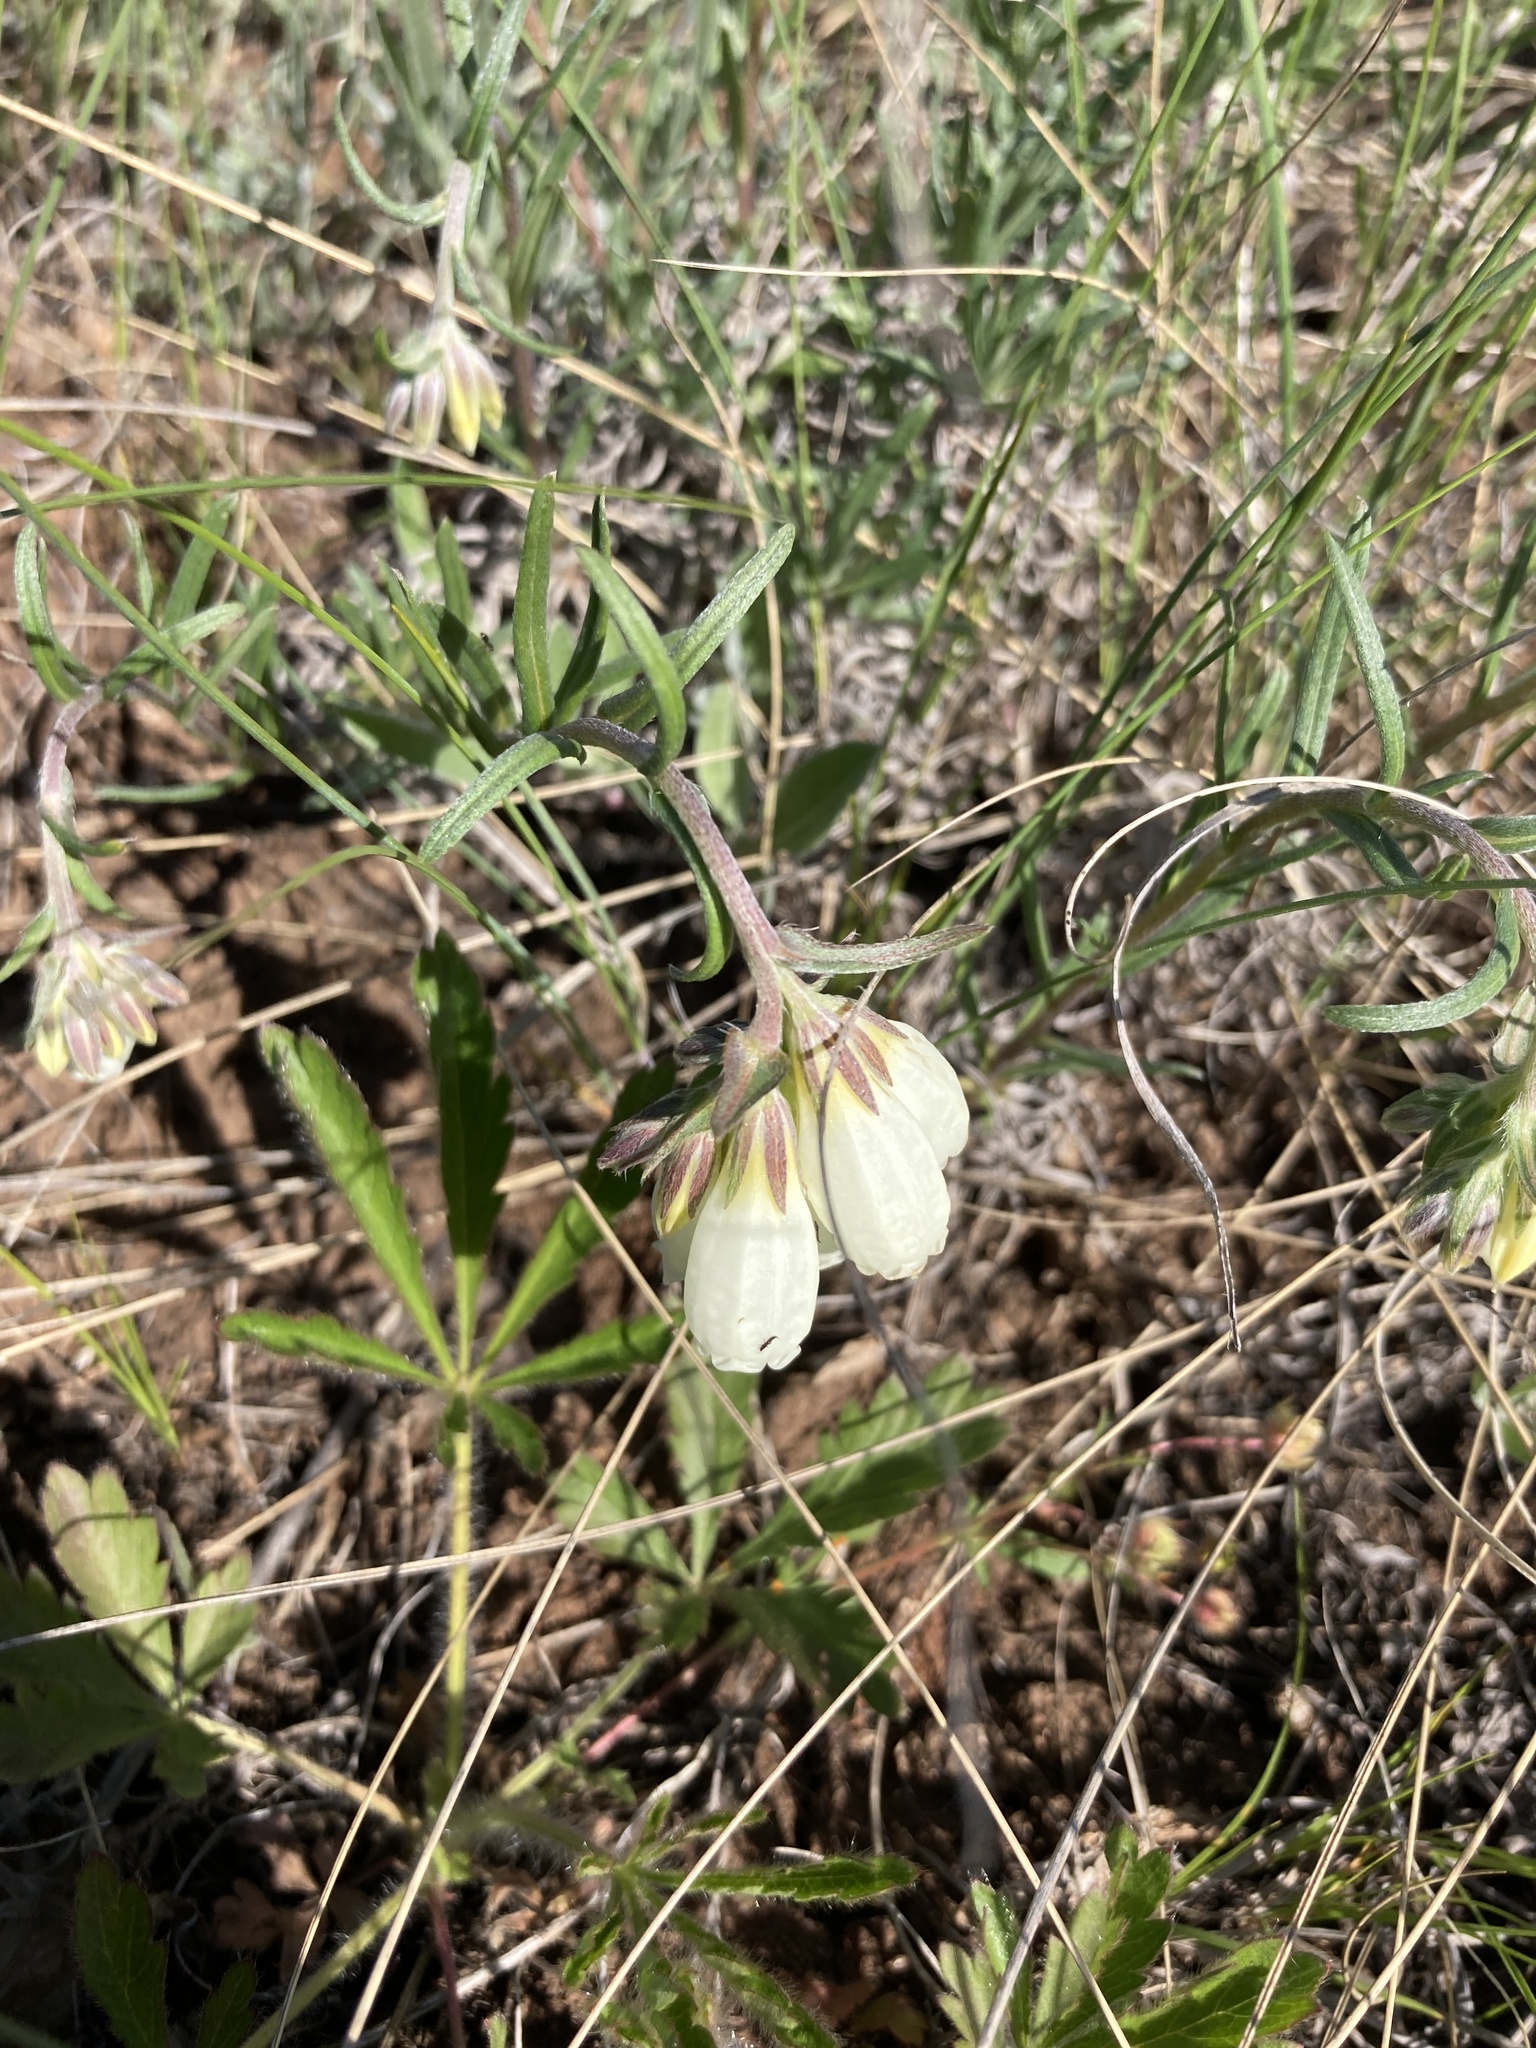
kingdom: Plantae
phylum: Tracheophyta
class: Magnoliopsida
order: Boraginales
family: Boraginaceae
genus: Onosma
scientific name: Onosma simplicissima
